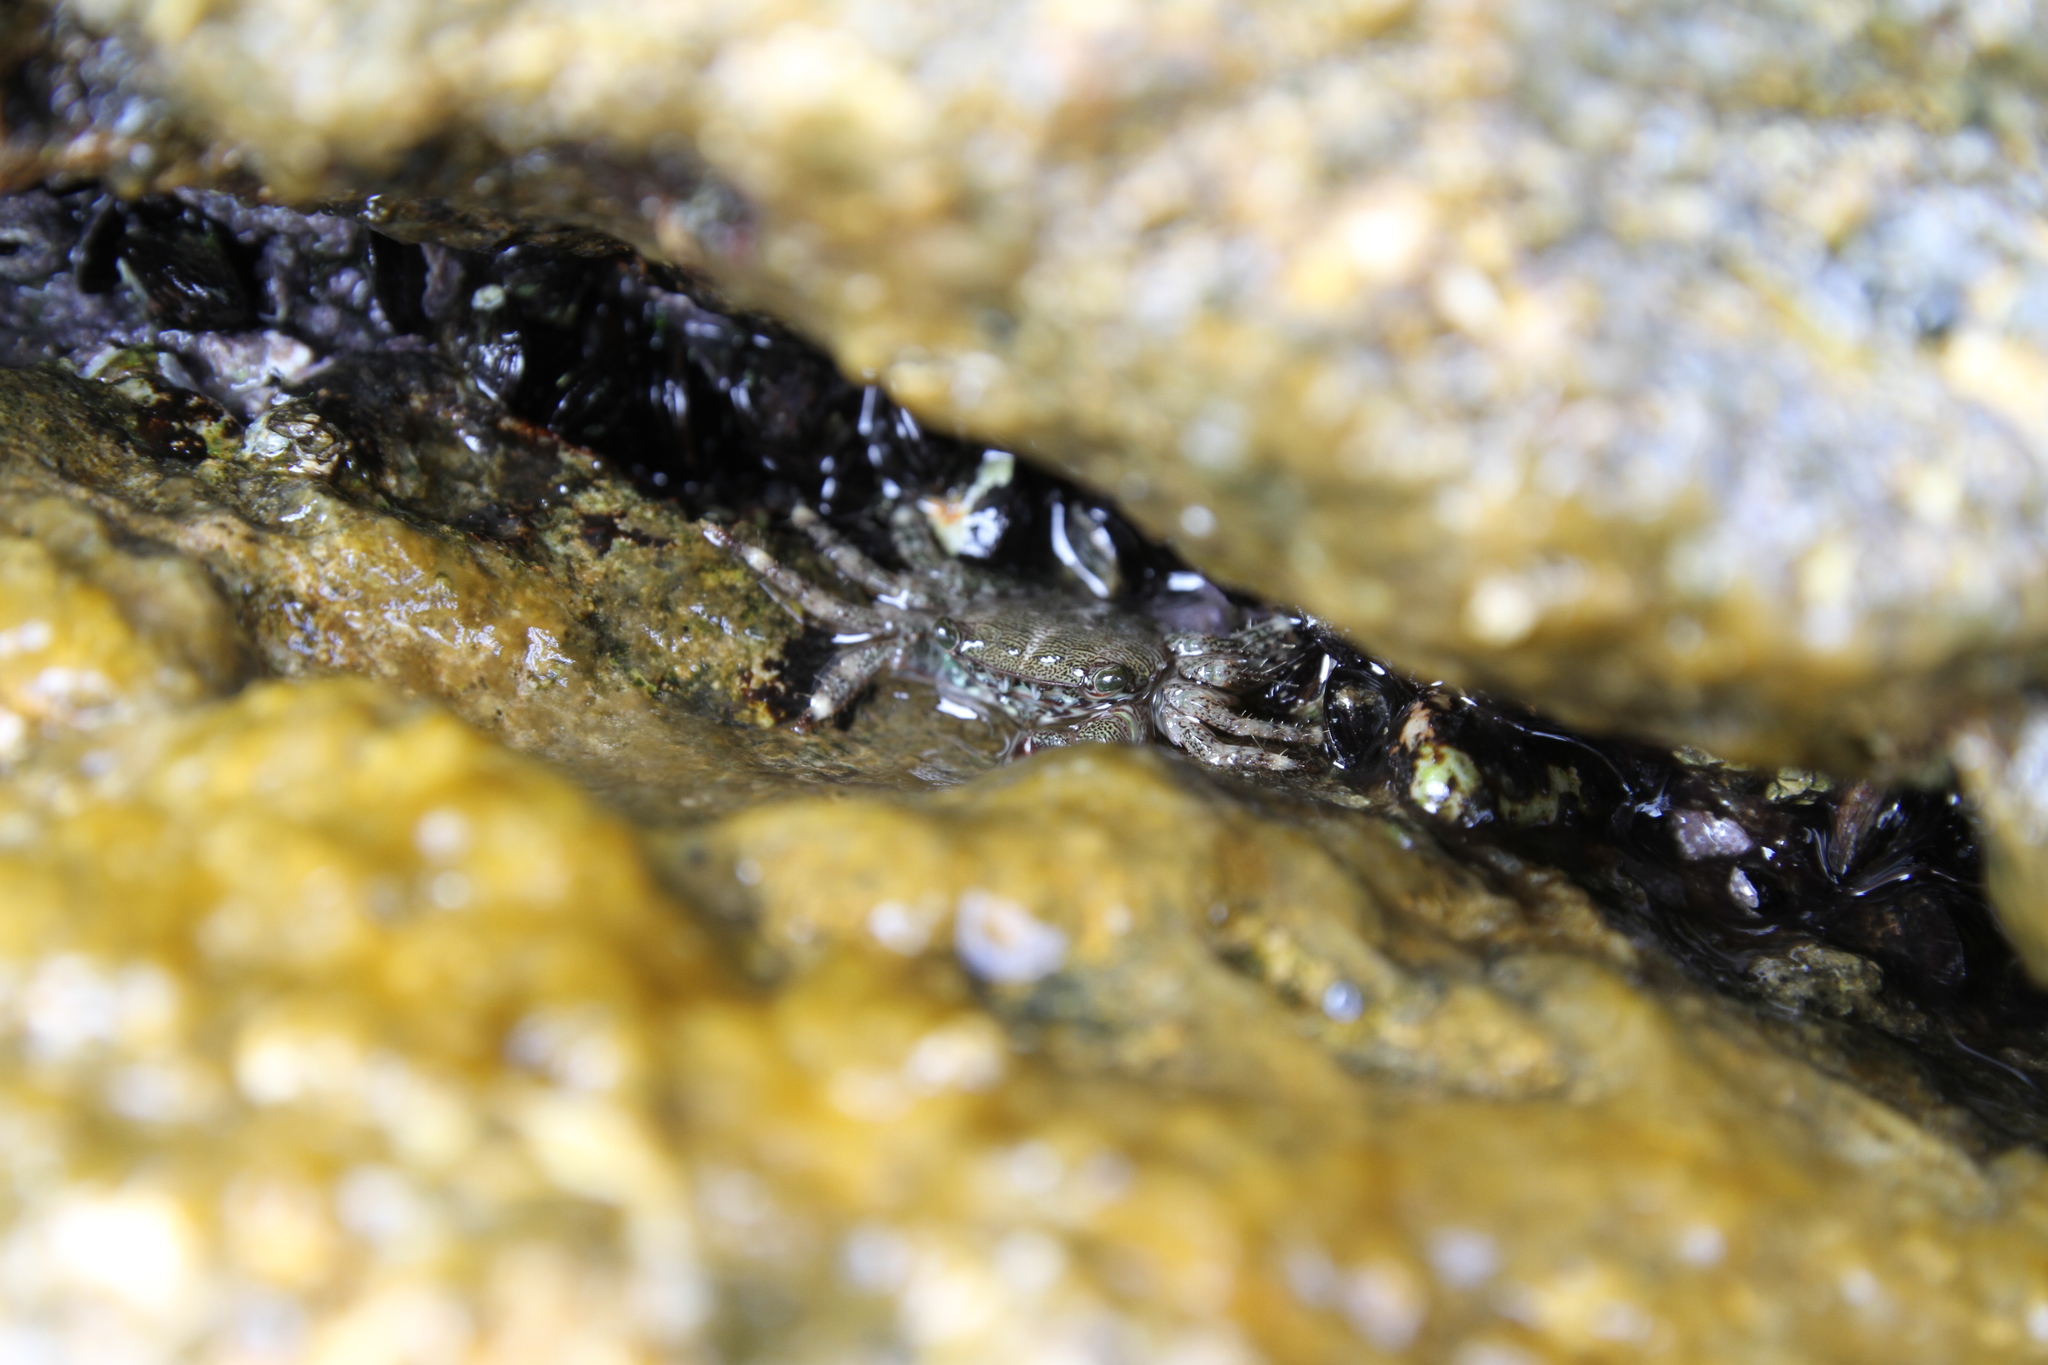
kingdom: Animalia
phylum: Arthropoda
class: Malacostraca
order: Decapoda
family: Grapsidae
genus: Pachygrapsus
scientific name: Pachygrapsus marmoratus
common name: Marbled rock crab
